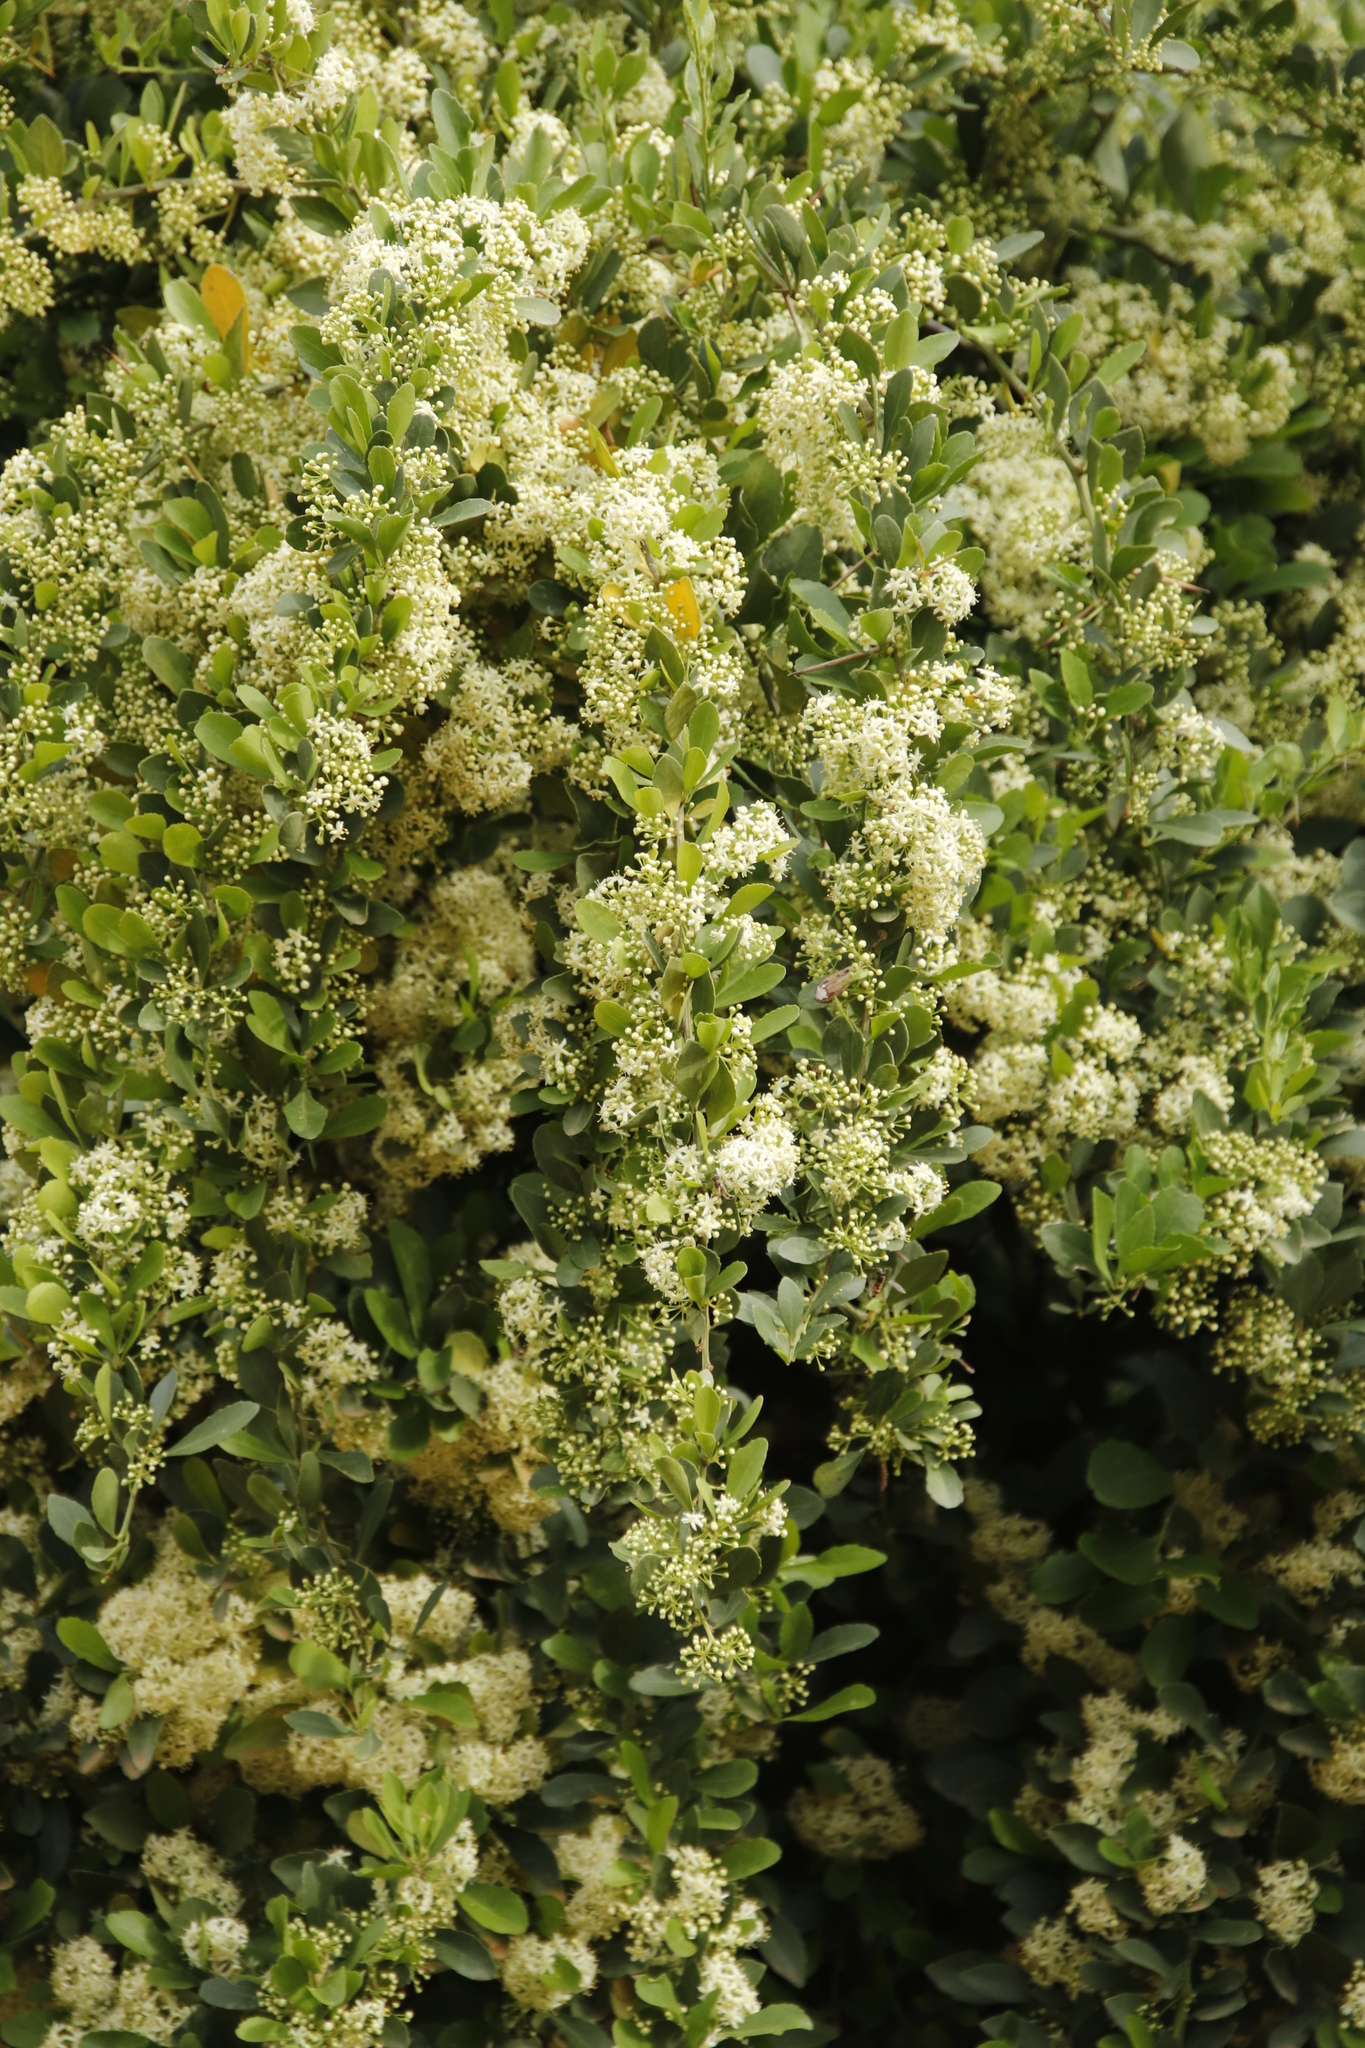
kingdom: Plantae
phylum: Tracheophyta
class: Magnoliopsida
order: Celastrales
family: Celastraceae
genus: Gymnosporia
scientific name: Gymnosporia buxifolia
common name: Common spike-thorn
